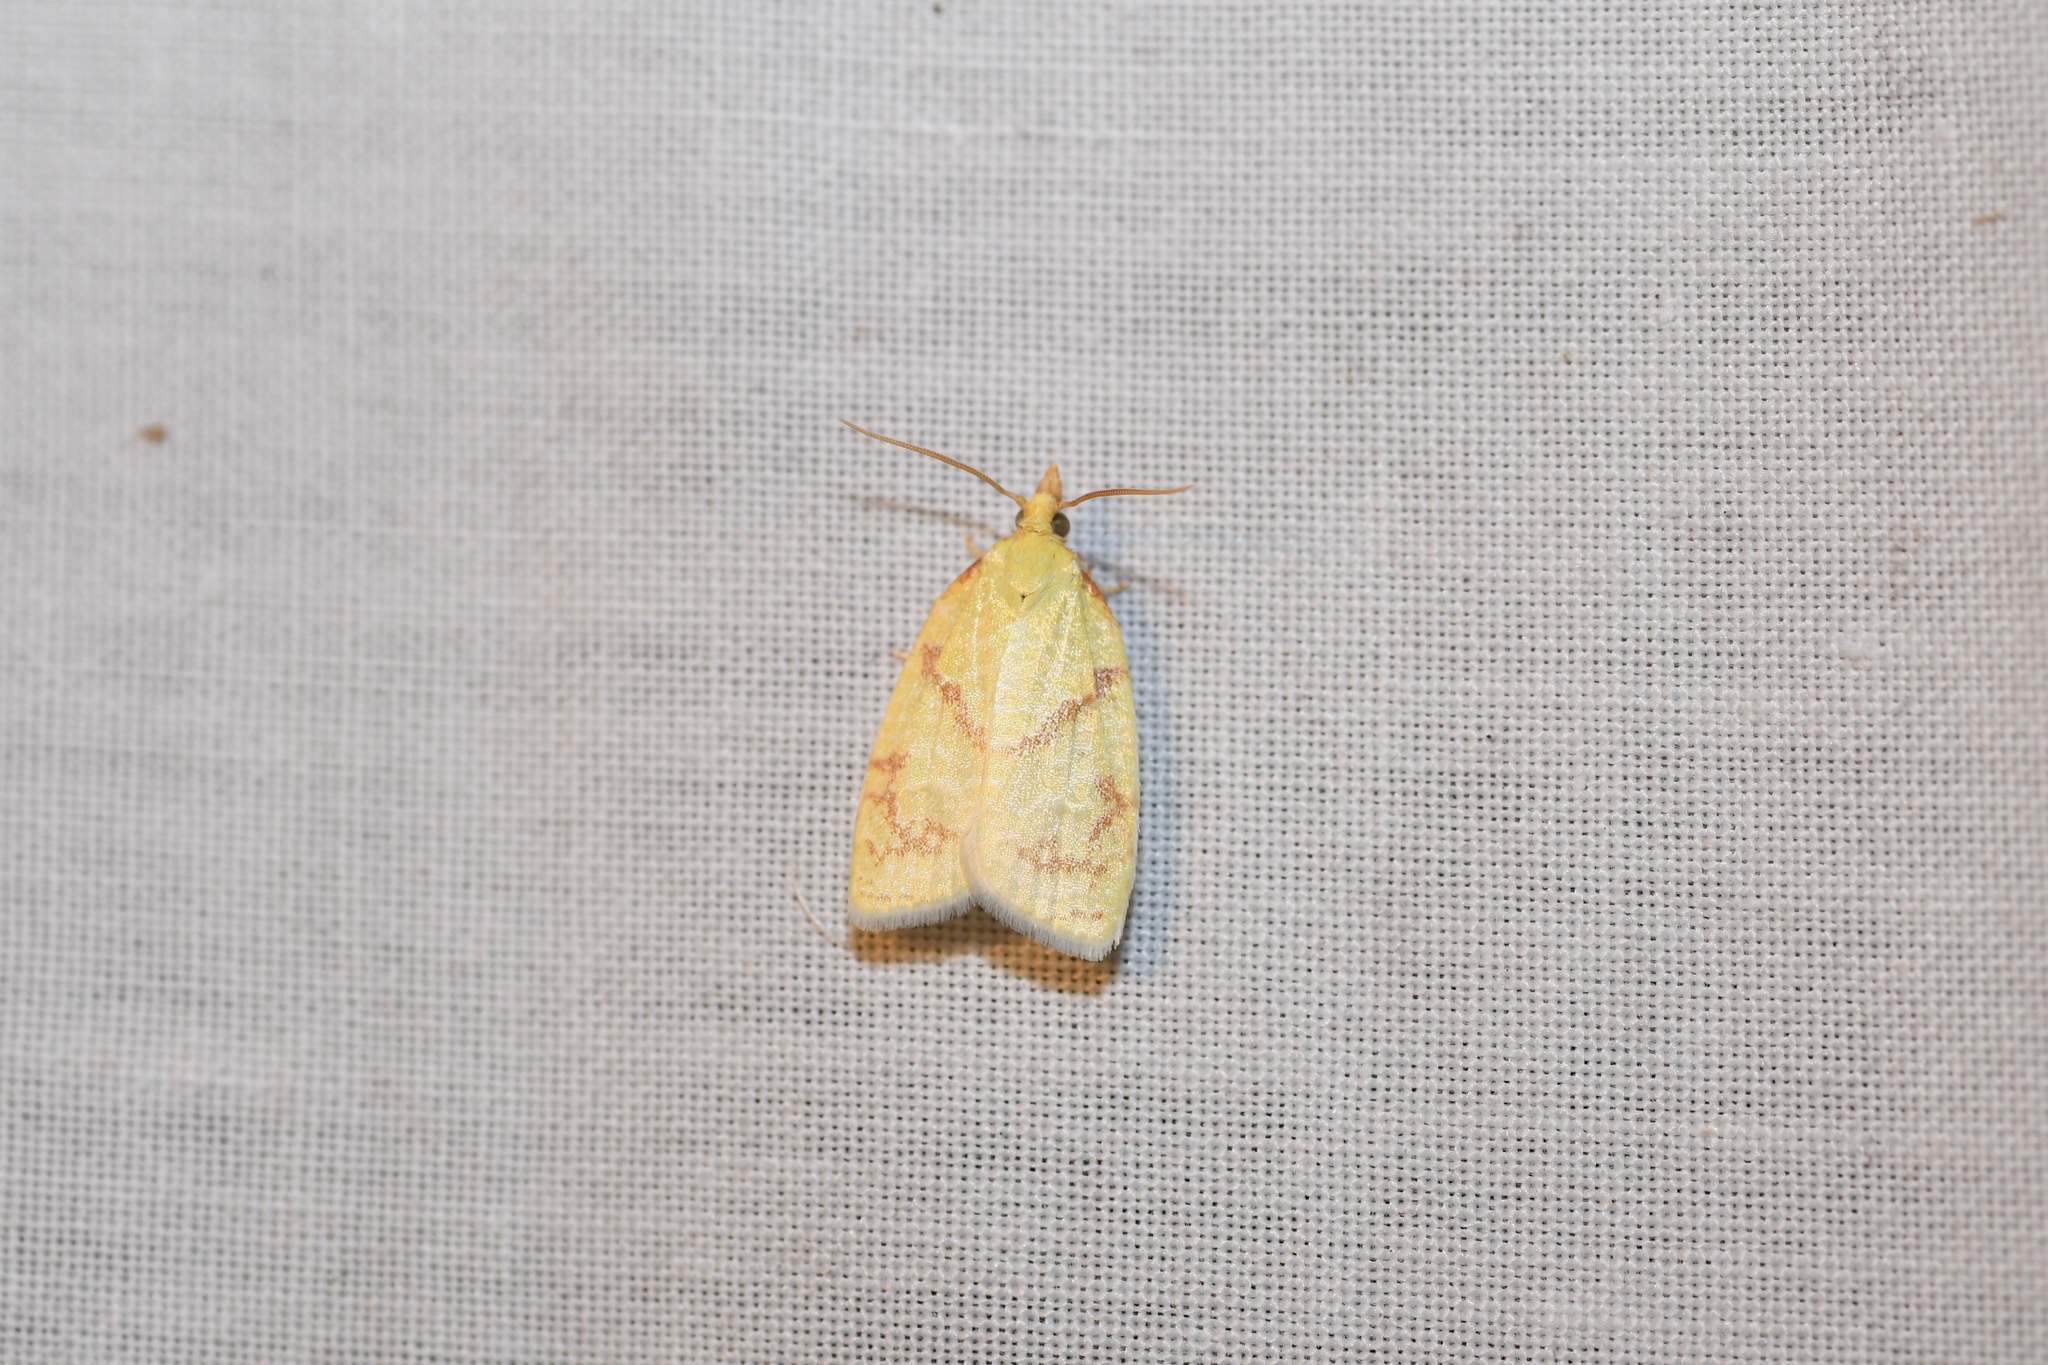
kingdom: Animalia
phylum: Arthropoda
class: Insecta
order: Lepidoptera
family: Tortricidae
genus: Cenopis
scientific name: Cenopis pettitana
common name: Maple-basswood leafroller moth
